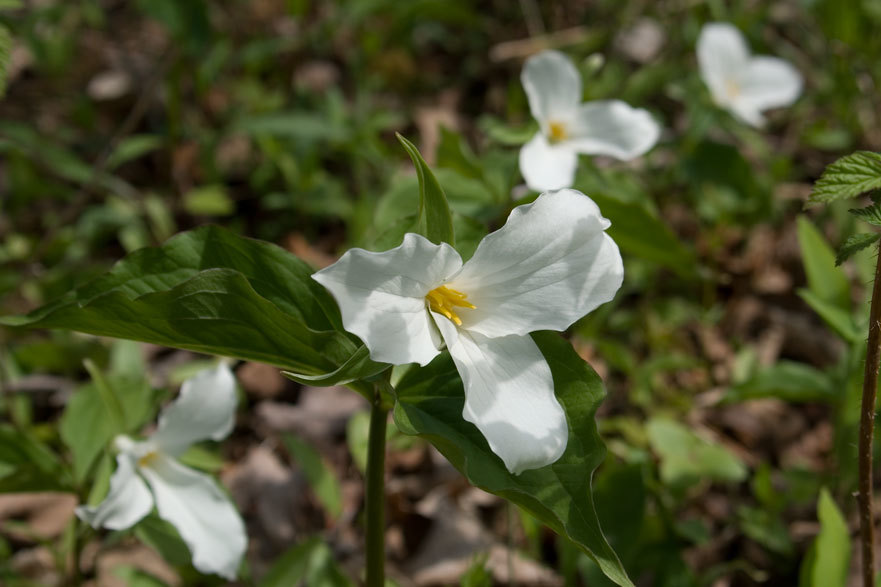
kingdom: Plantae
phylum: Tracheophyta
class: Liliopsida
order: Liliales
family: Melanthiaceae
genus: Trillium
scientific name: Trillium grandiflorum
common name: Great white trillium
